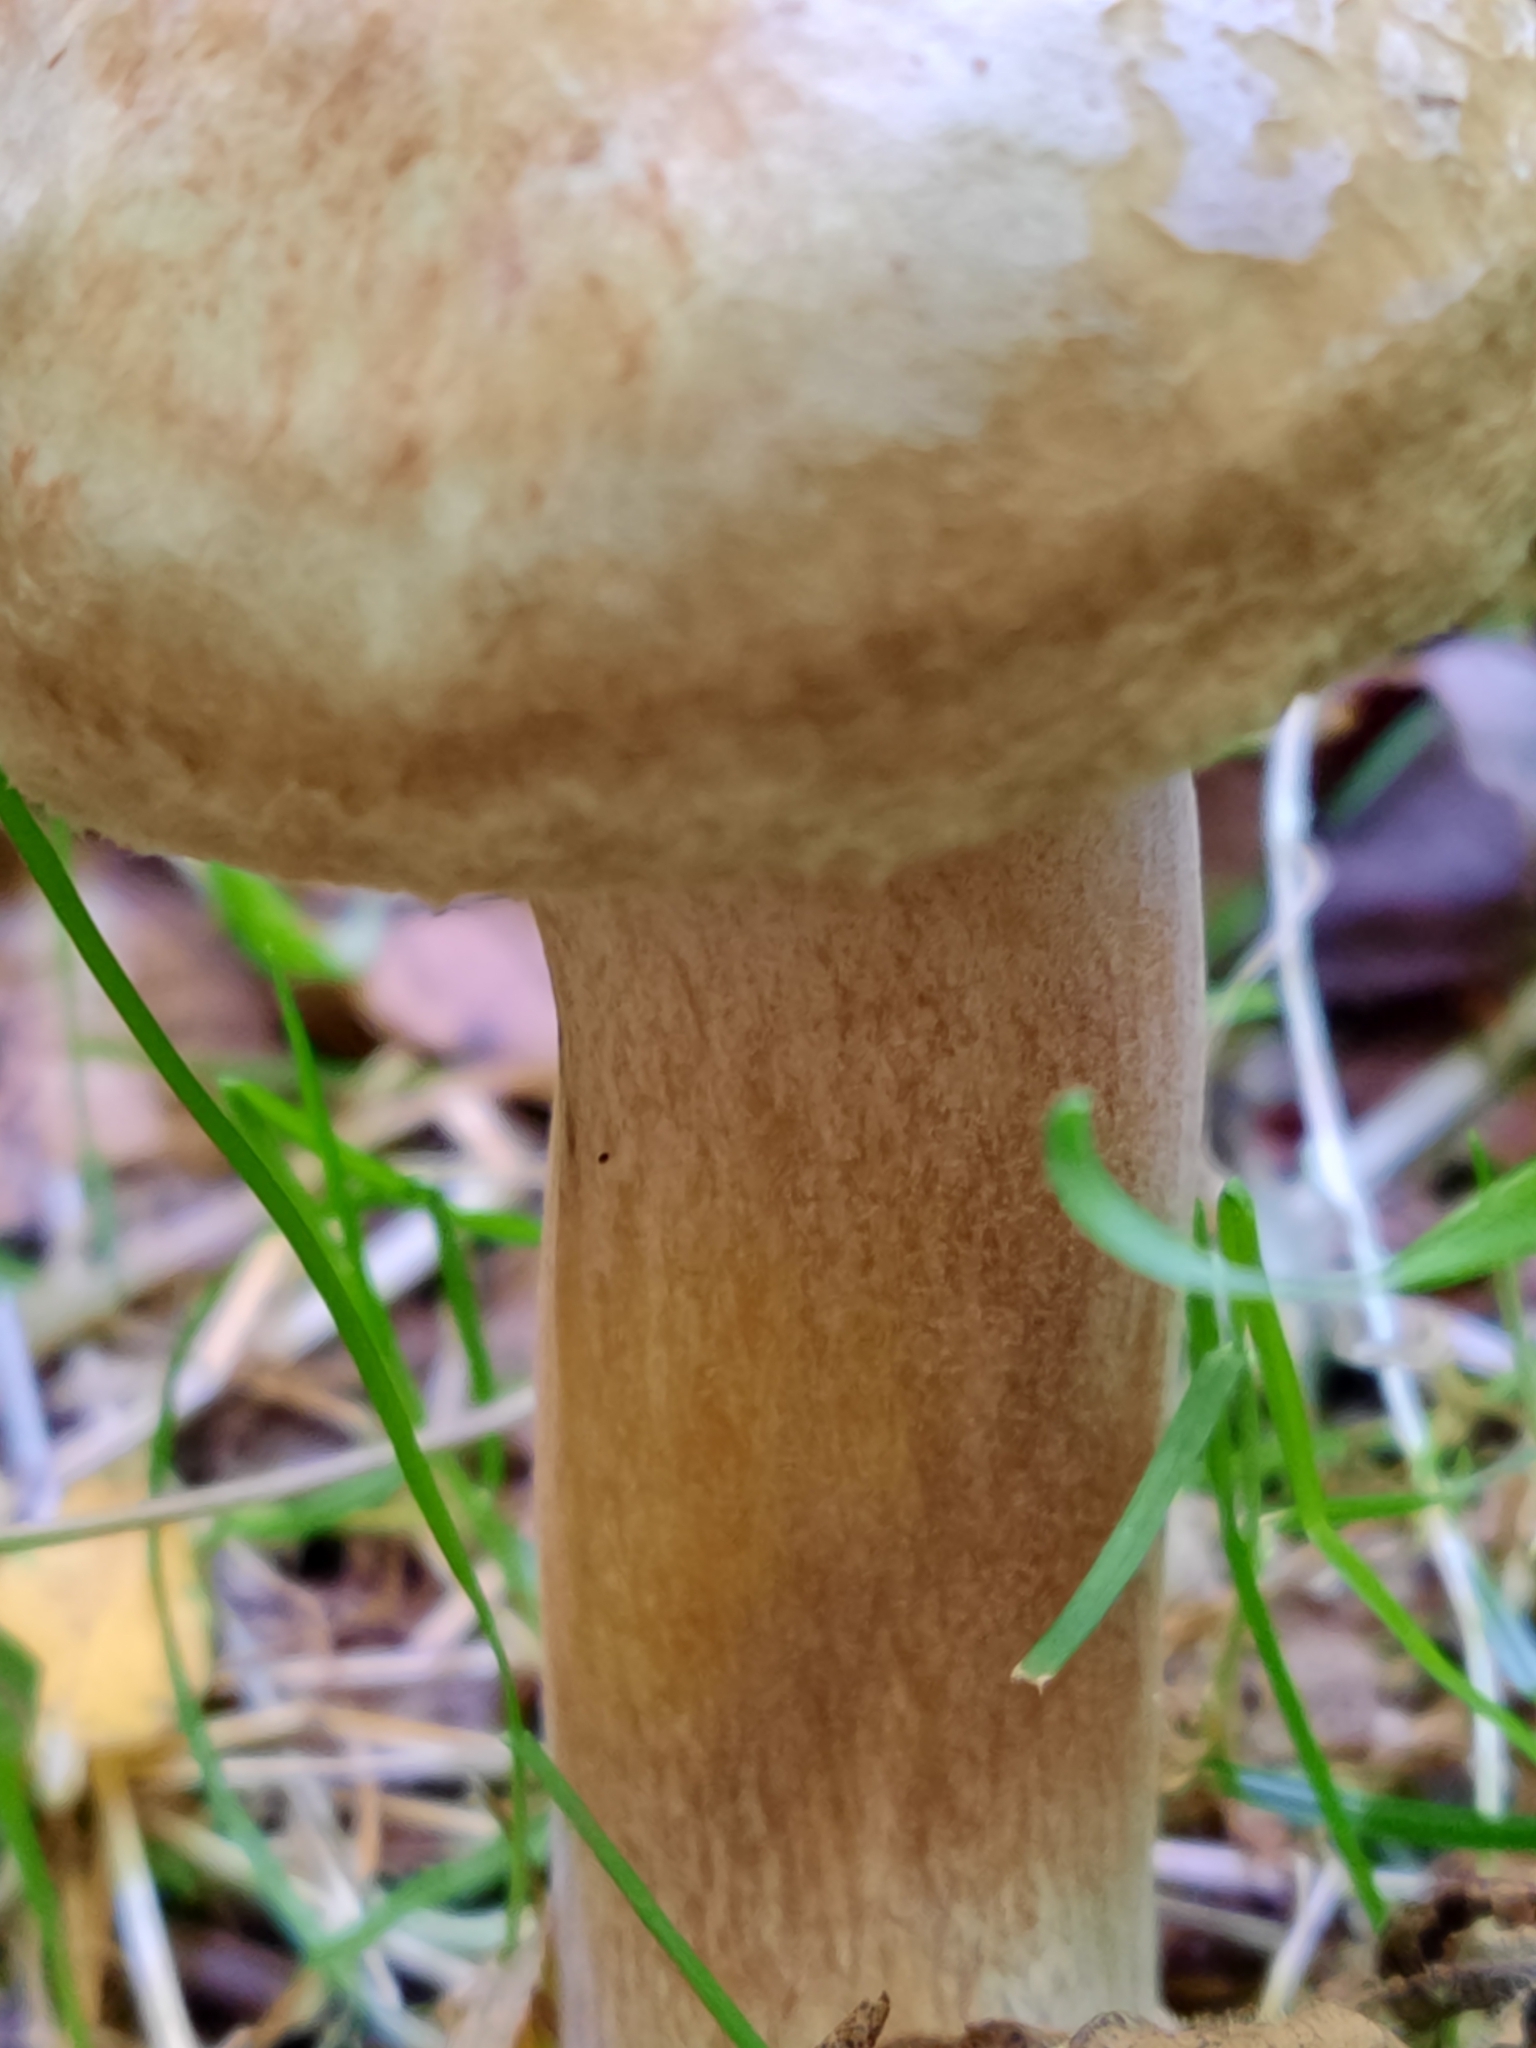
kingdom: Fungi
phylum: Basidiomycota
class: Agaricomycetes
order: Boletales
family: Paxillaceae
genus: Paxillus
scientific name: Paxillus involutus
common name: Brown roll rim
